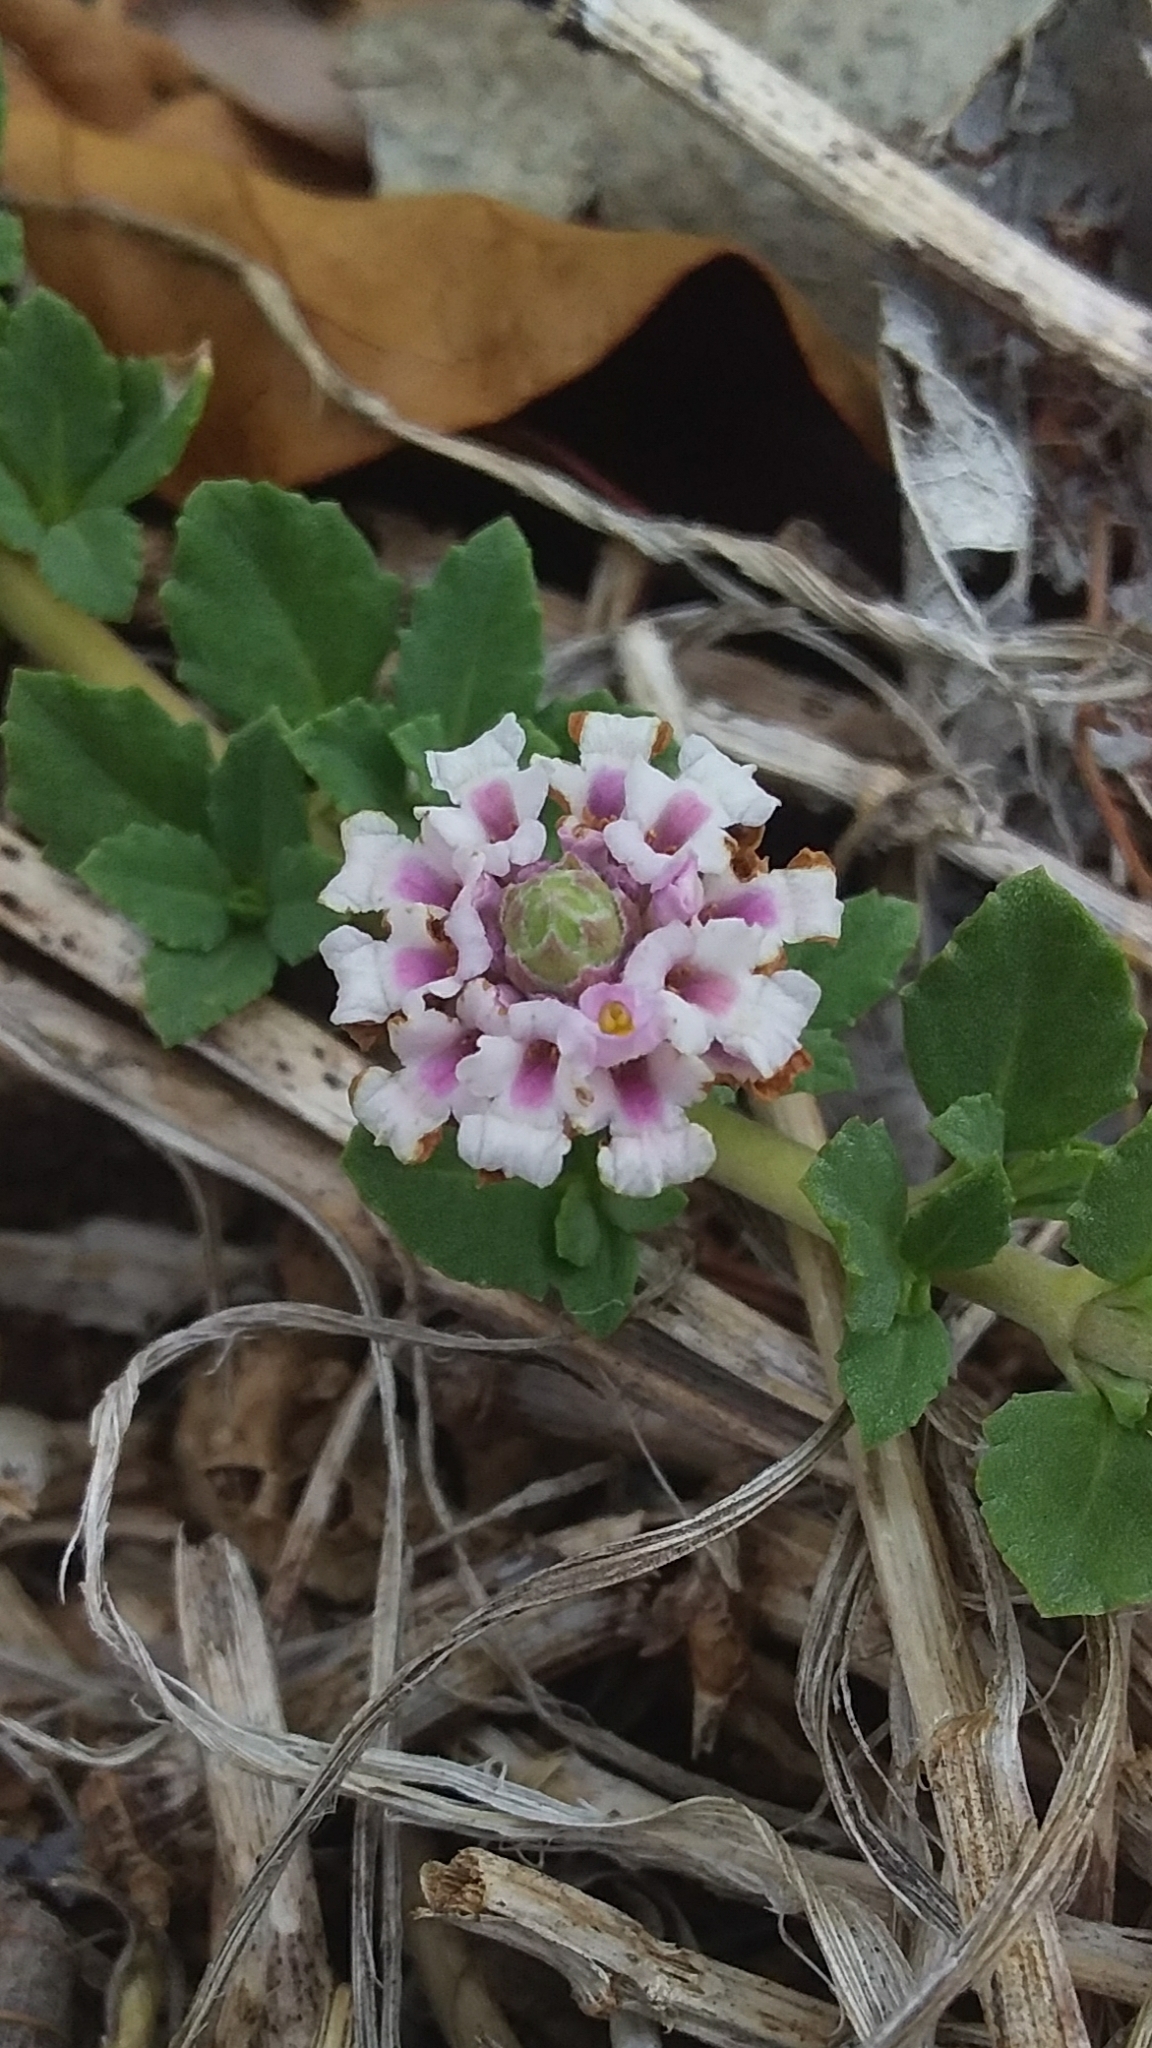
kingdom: Plantae
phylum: Tracheophyta
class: Magnoliopsida
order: Lamiales
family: Verbenaceae
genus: Phyla
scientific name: Phyla nodiflora
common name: Frogfruit
